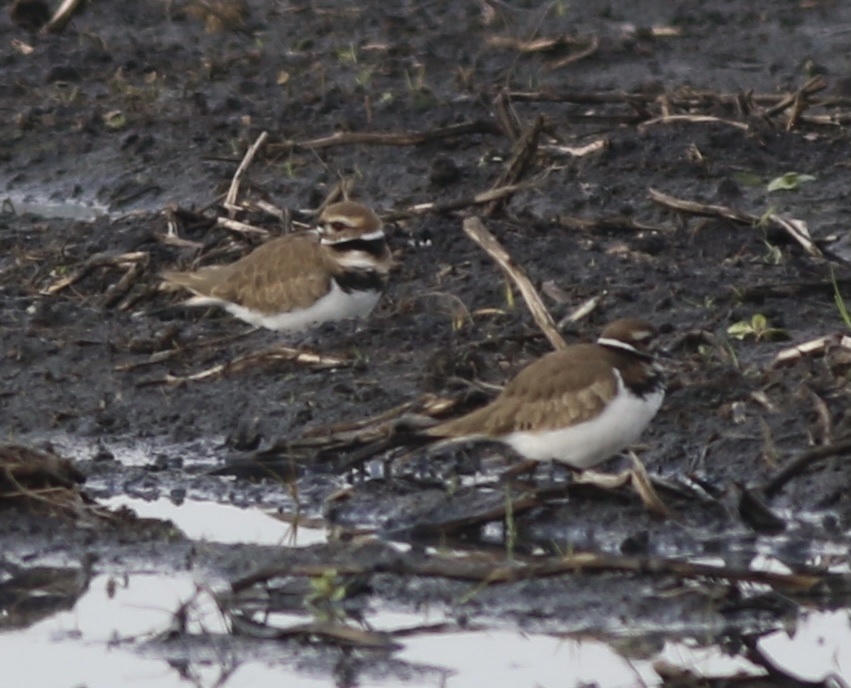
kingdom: Animalia
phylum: Chordata
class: Aves
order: Charadriiformes
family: Charadriidae
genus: Charadrius
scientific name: Charadrius vociferus
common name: Killdeer
